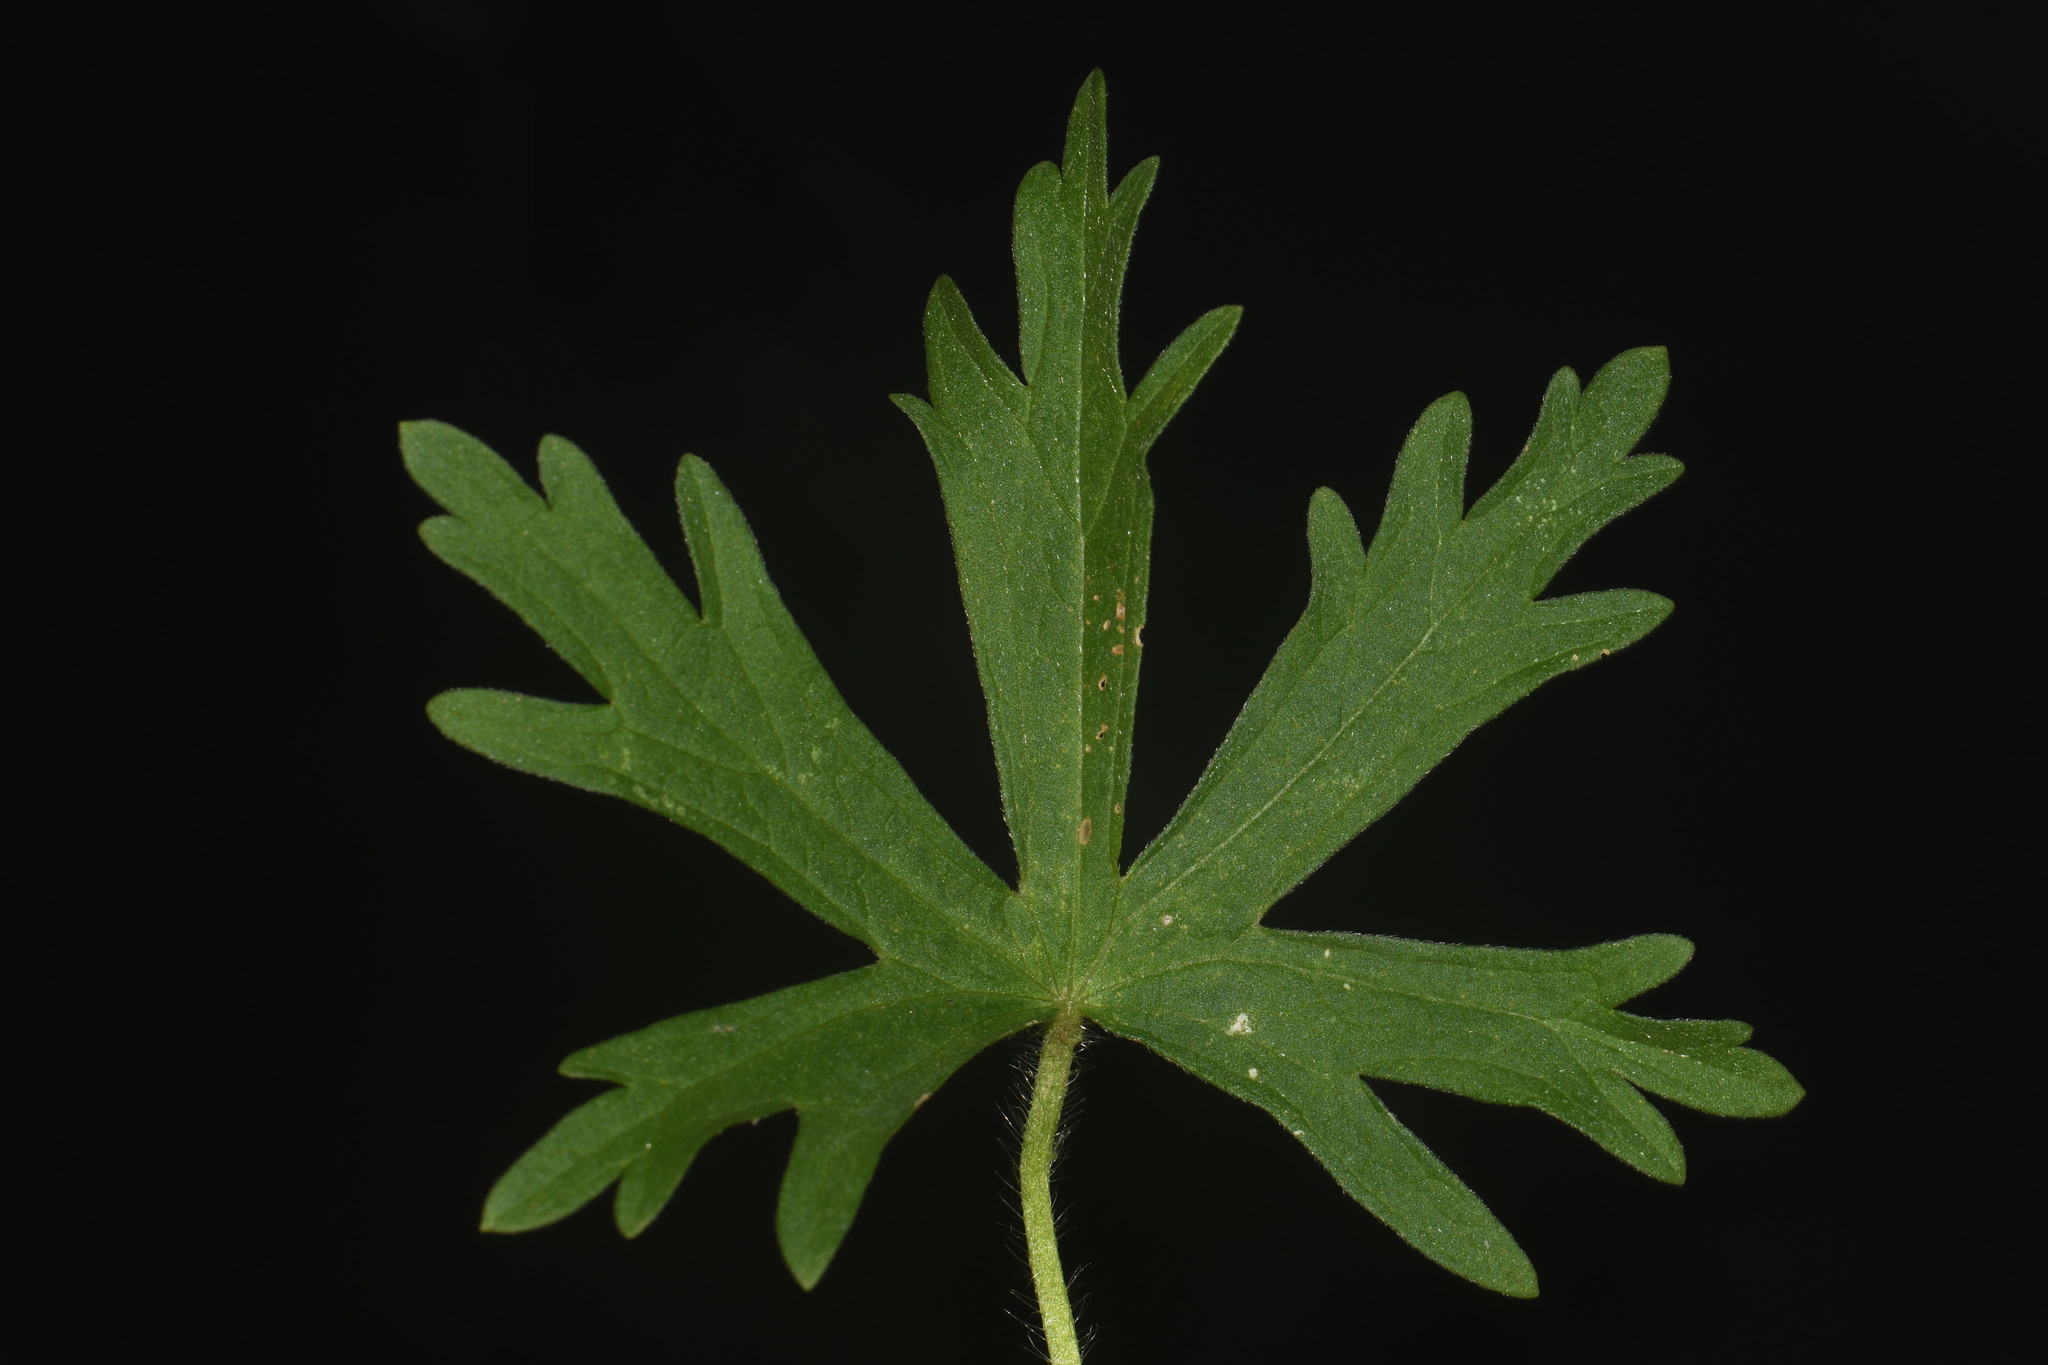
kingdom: Plantae
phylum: Tracheophyta
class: Magnoliopsida
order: Malvales
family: Malvaceae
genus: Callirhoe
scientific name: Callirhoe involucrata
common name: Purple poppy-mallow
